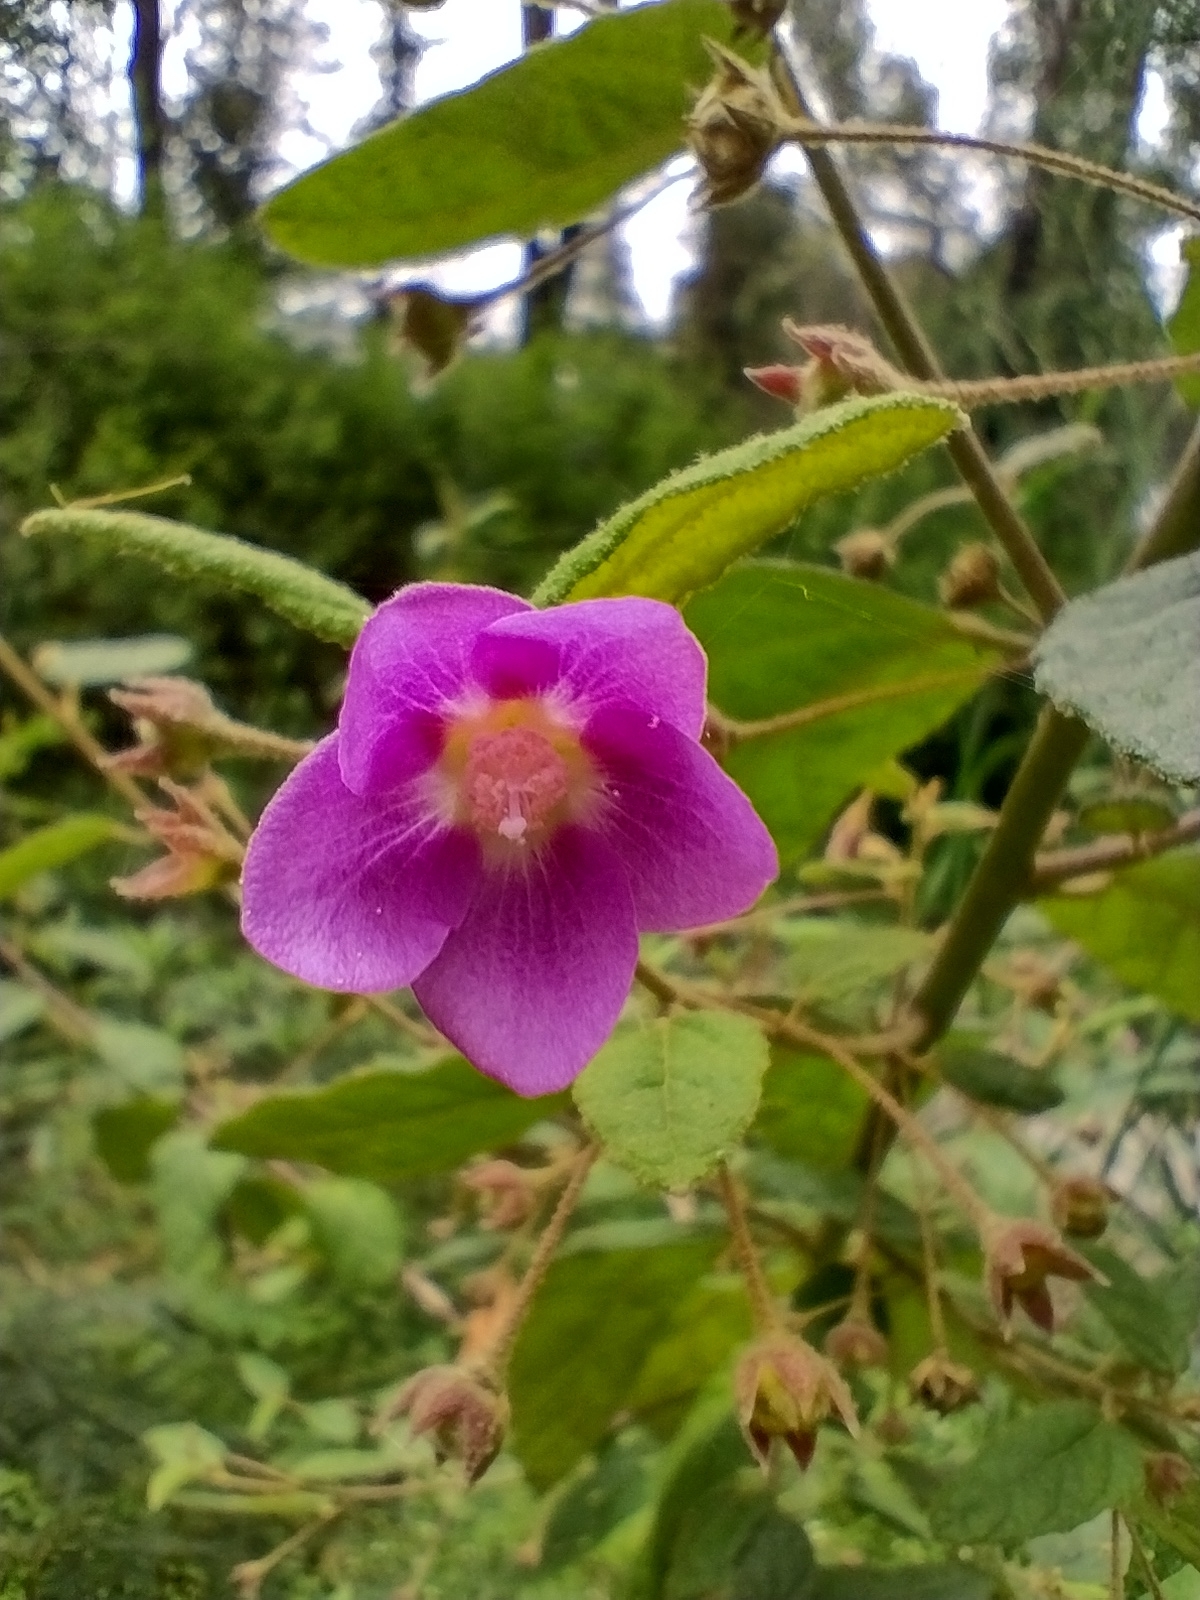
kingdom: Plantae
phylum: Tracheophyta
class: Magnoliopsida
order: Malvales
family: Malvaceae
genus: Howittia
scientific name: Howittia trilocularis
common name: Blue howittia
